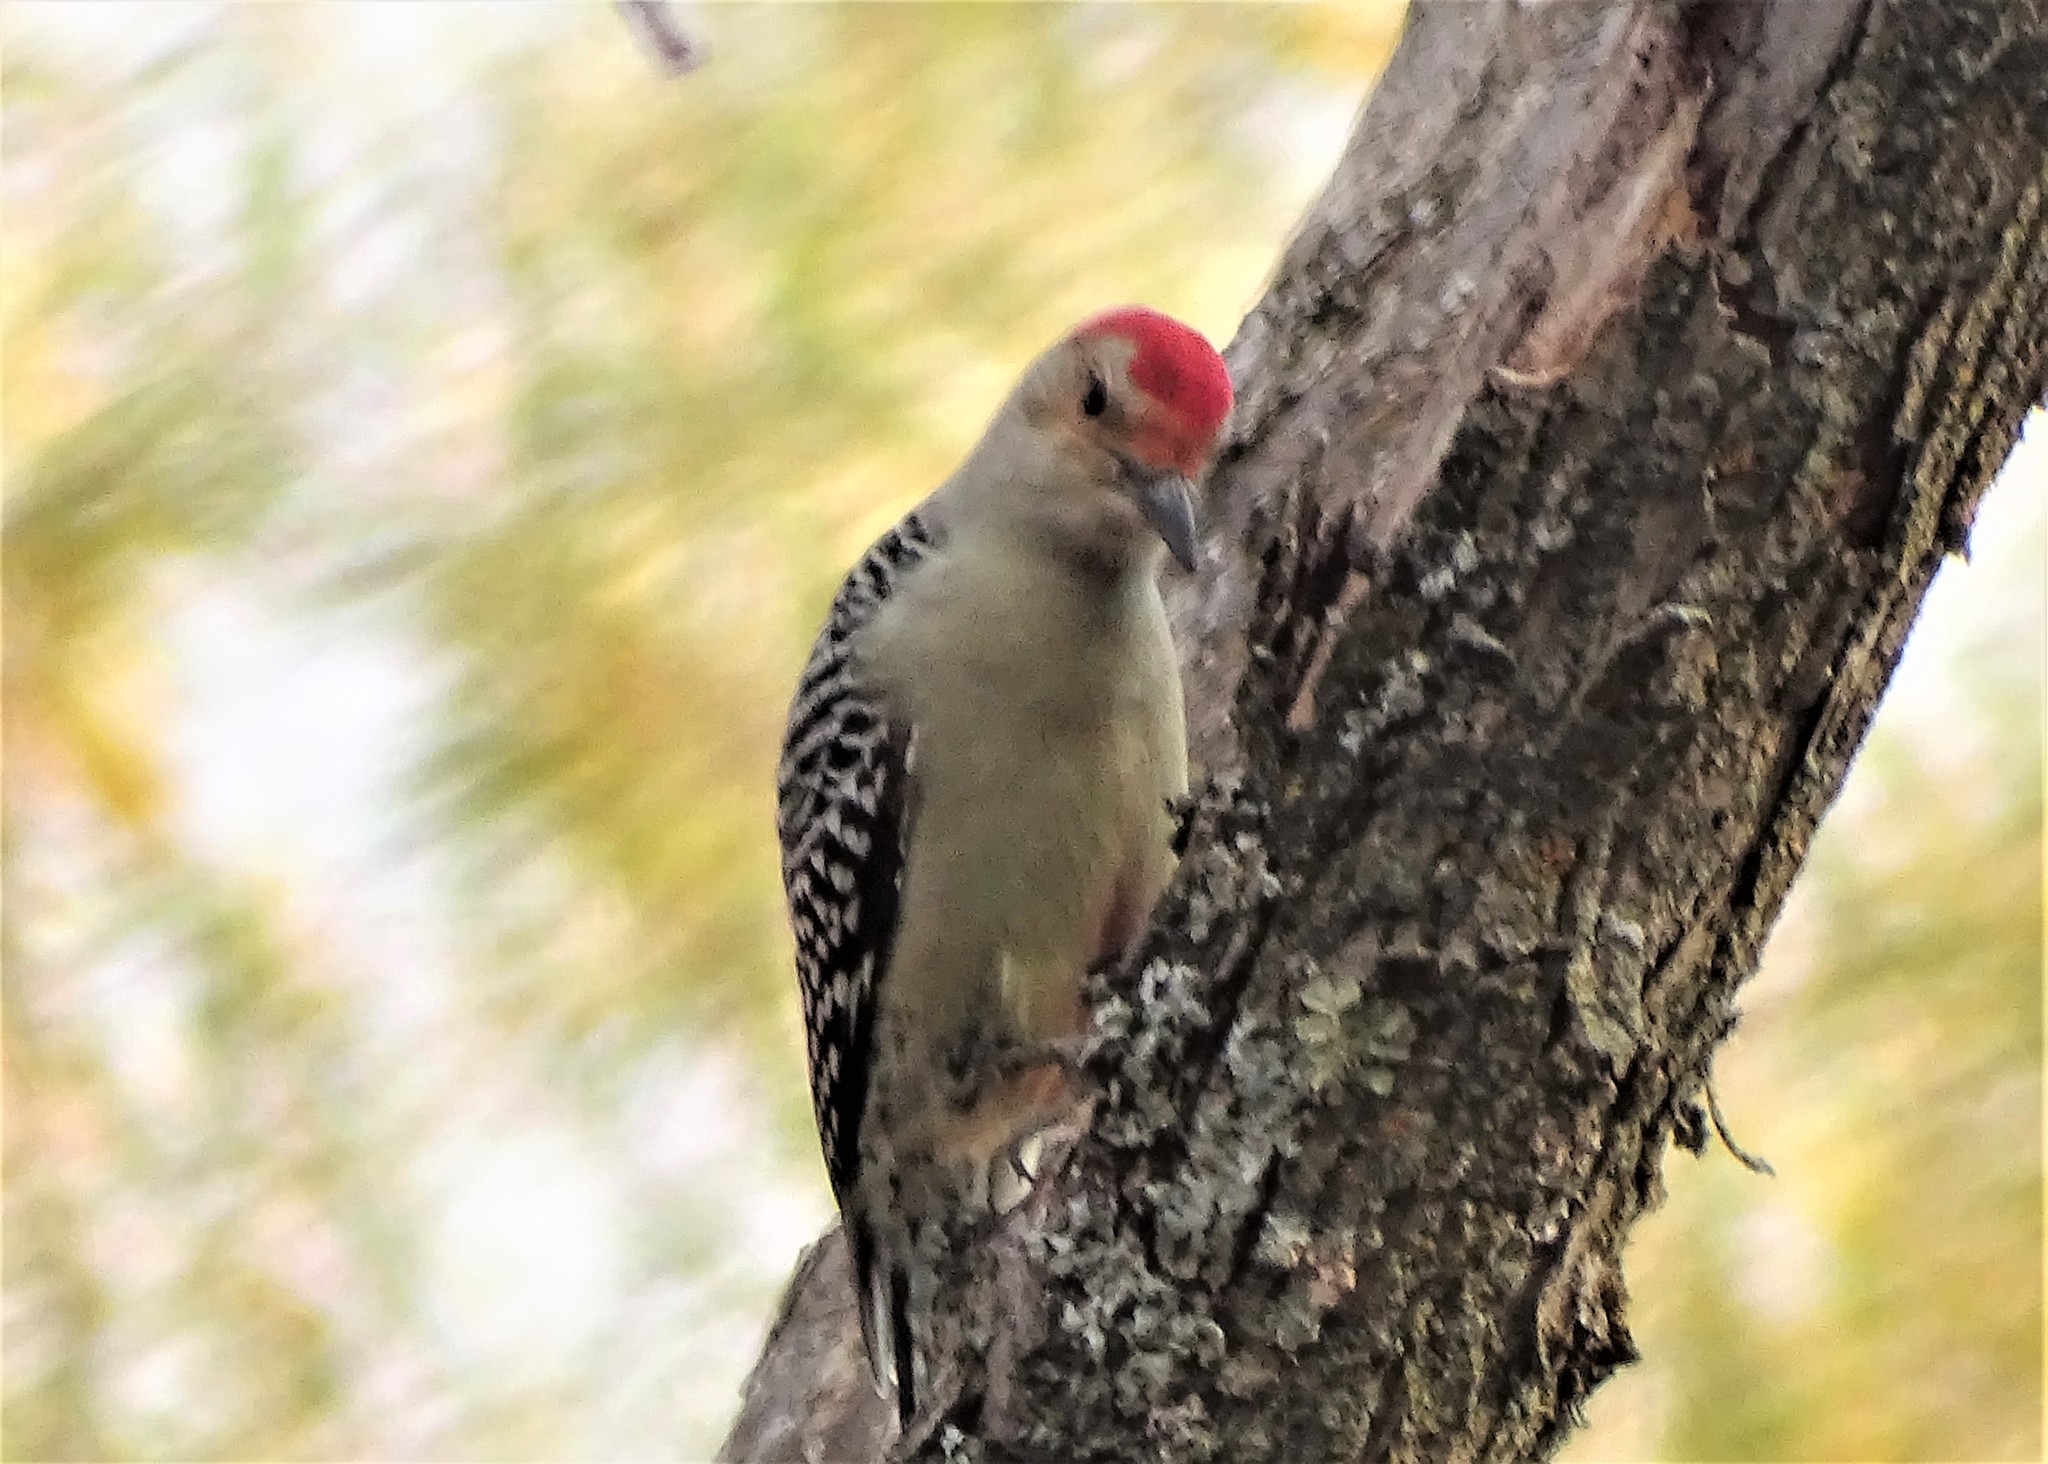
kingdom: Animalia
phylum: Chordata
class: Aves
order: Piciformes
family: Picidae
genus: Melanerpes
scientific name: Melanerpes carolinus
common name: Red-bellied woodpecker
